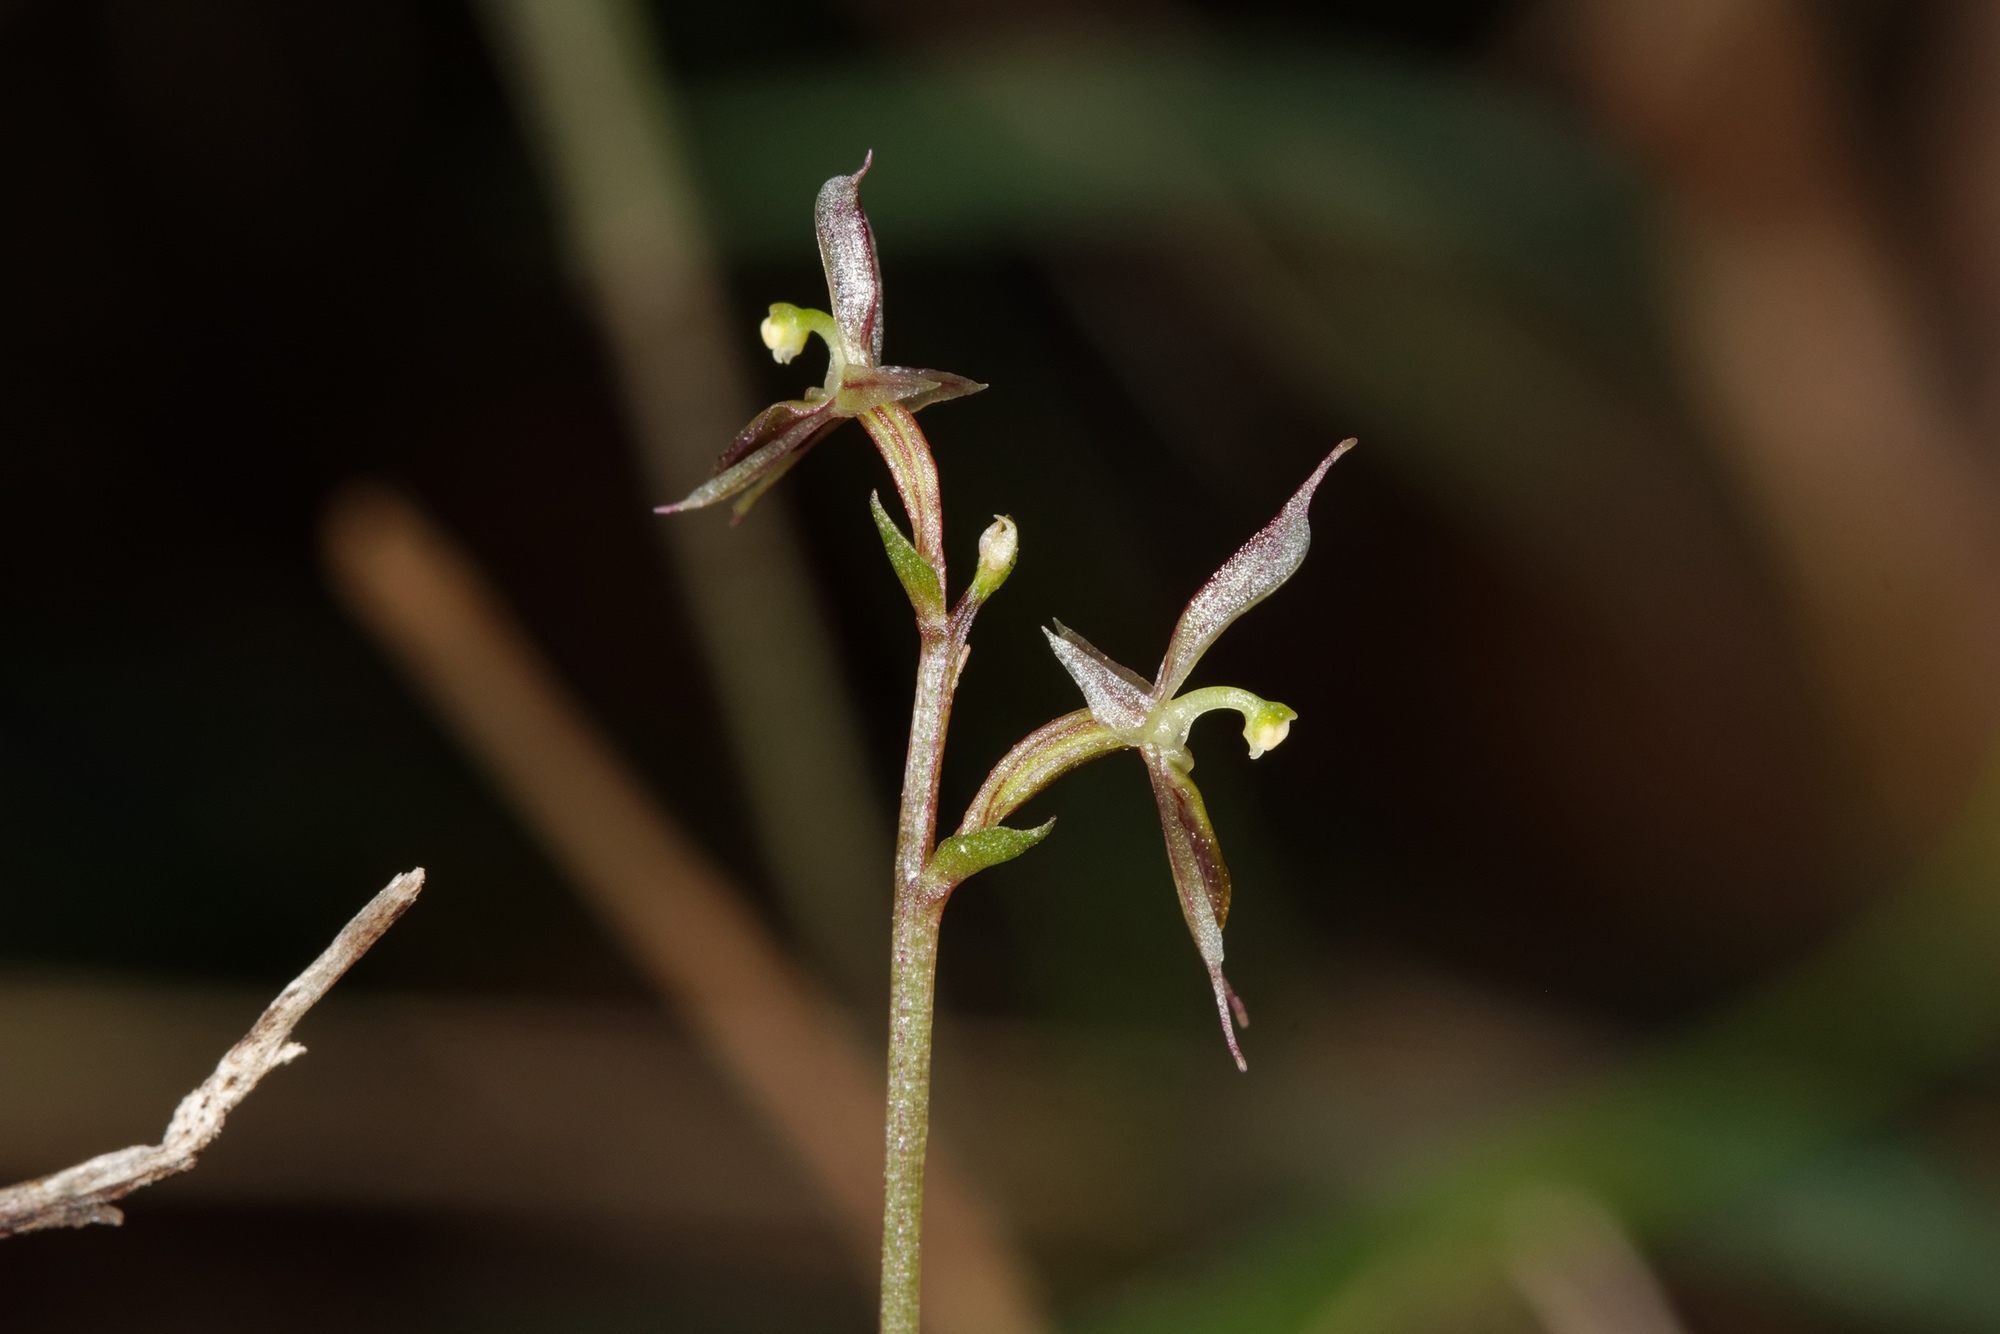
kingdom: Plantae
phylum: Tracheophyta
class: Liliopsida
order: Asparagales
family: Orchidaceae
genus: Acianthus
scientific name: Acianthus pusillus
